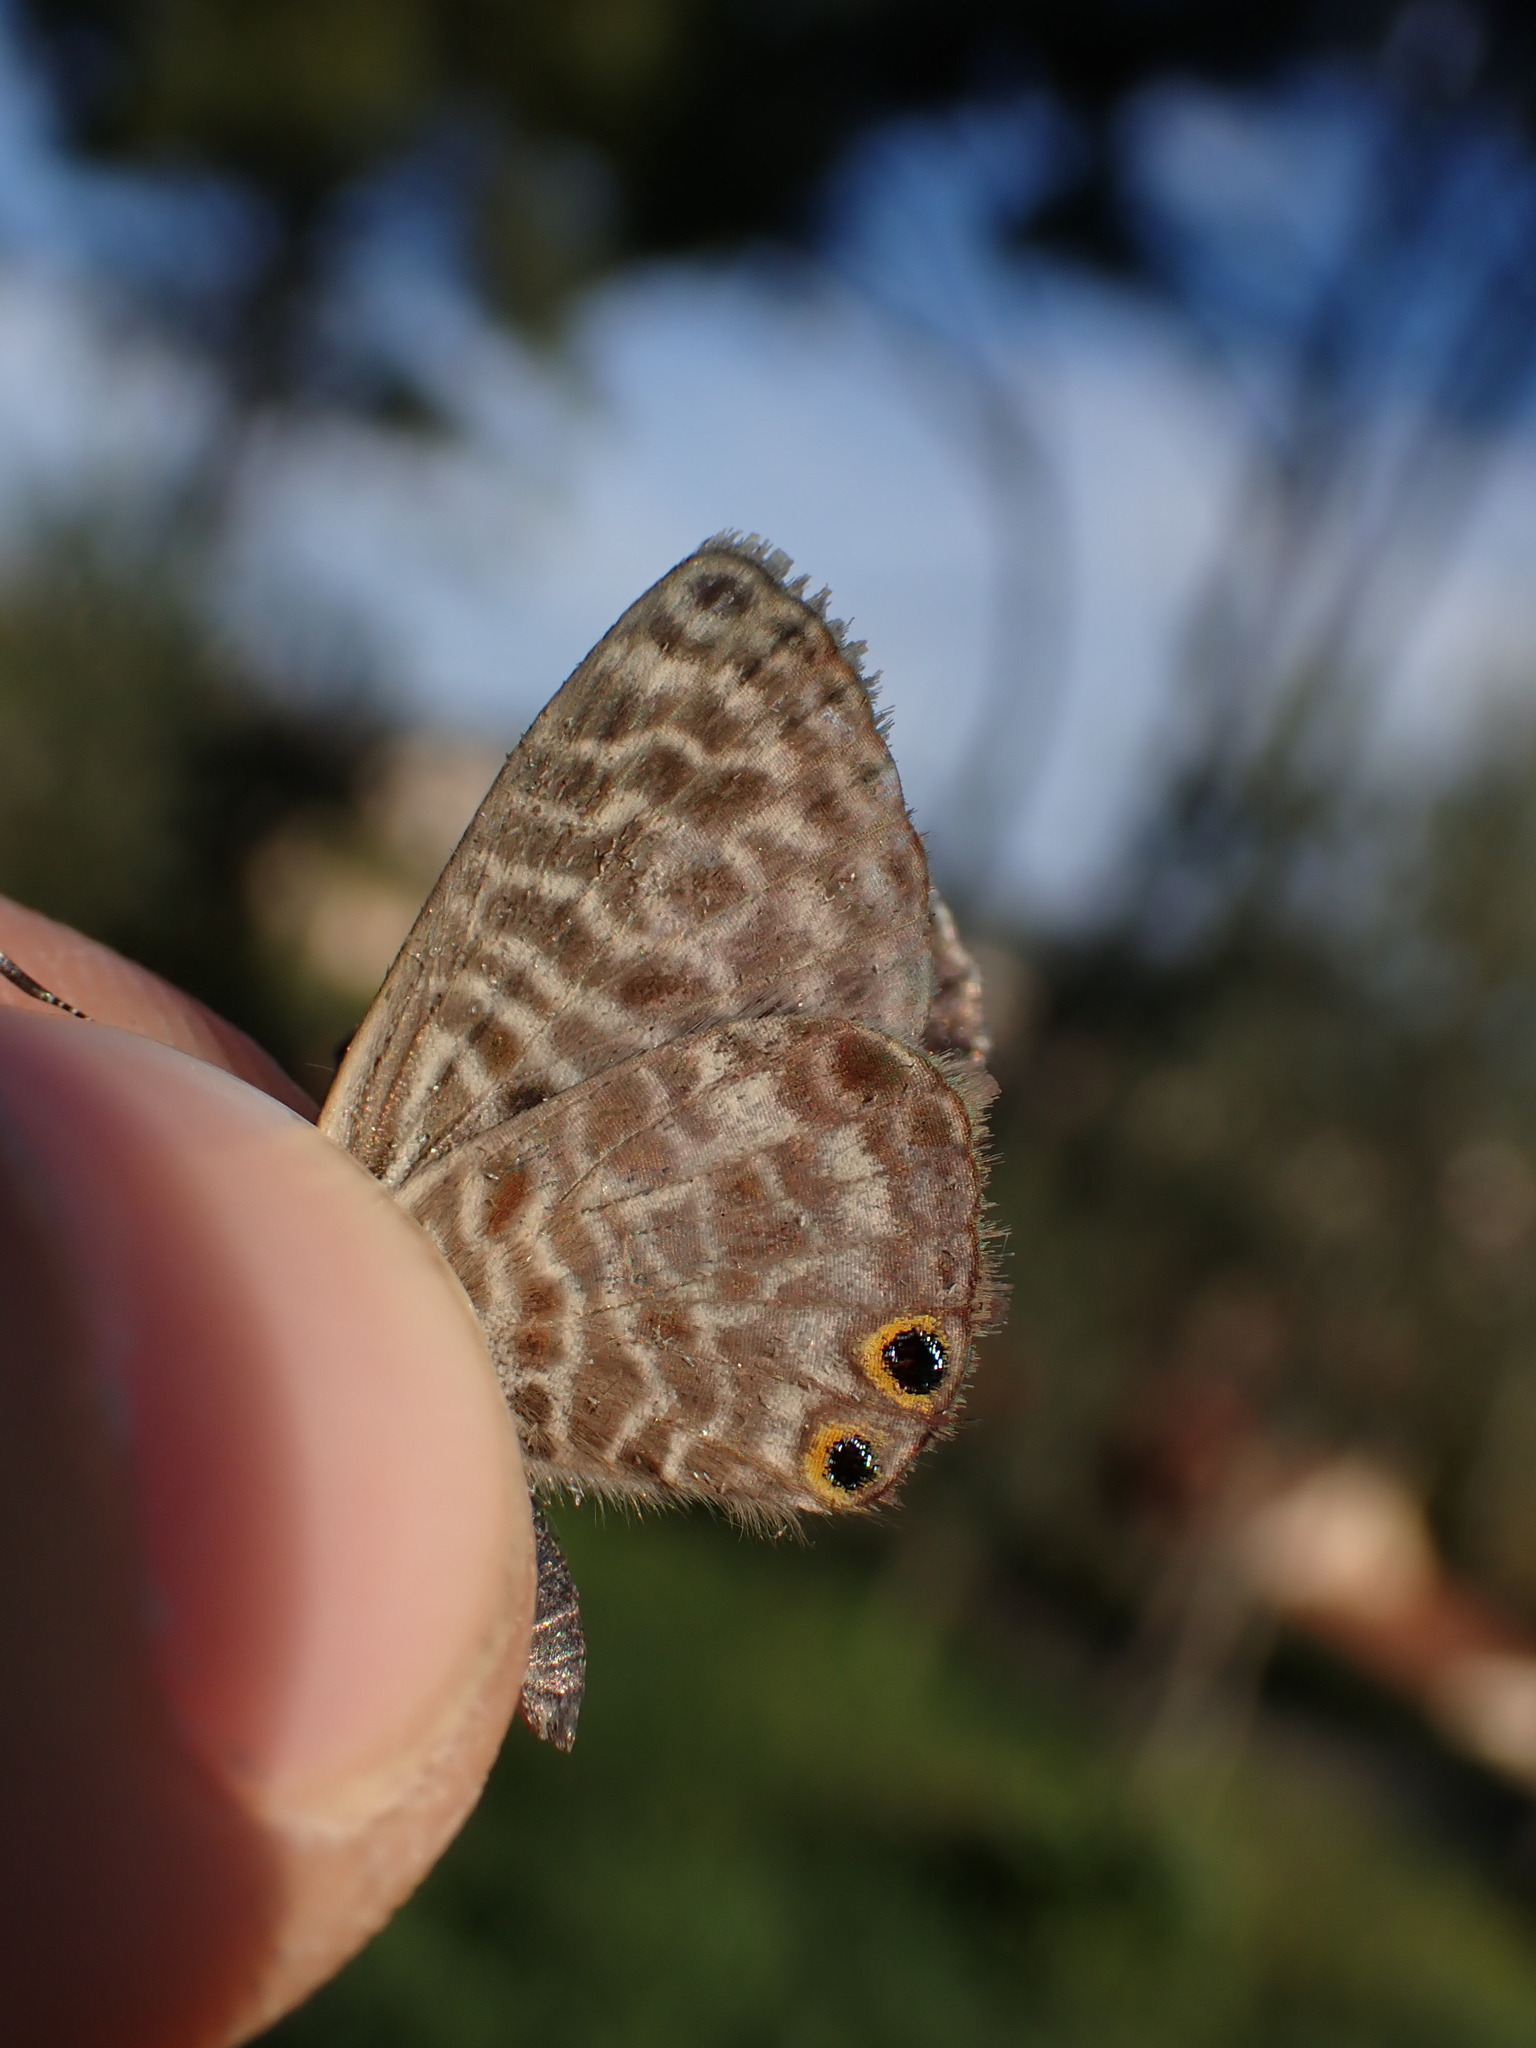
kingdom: Animalia
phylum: Arthropoda
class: Insecta
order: Lepidoptera
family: Lycaenidae
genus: Leptotes
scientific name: Leptotes pirithous
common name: Lang's short-tailed blue
